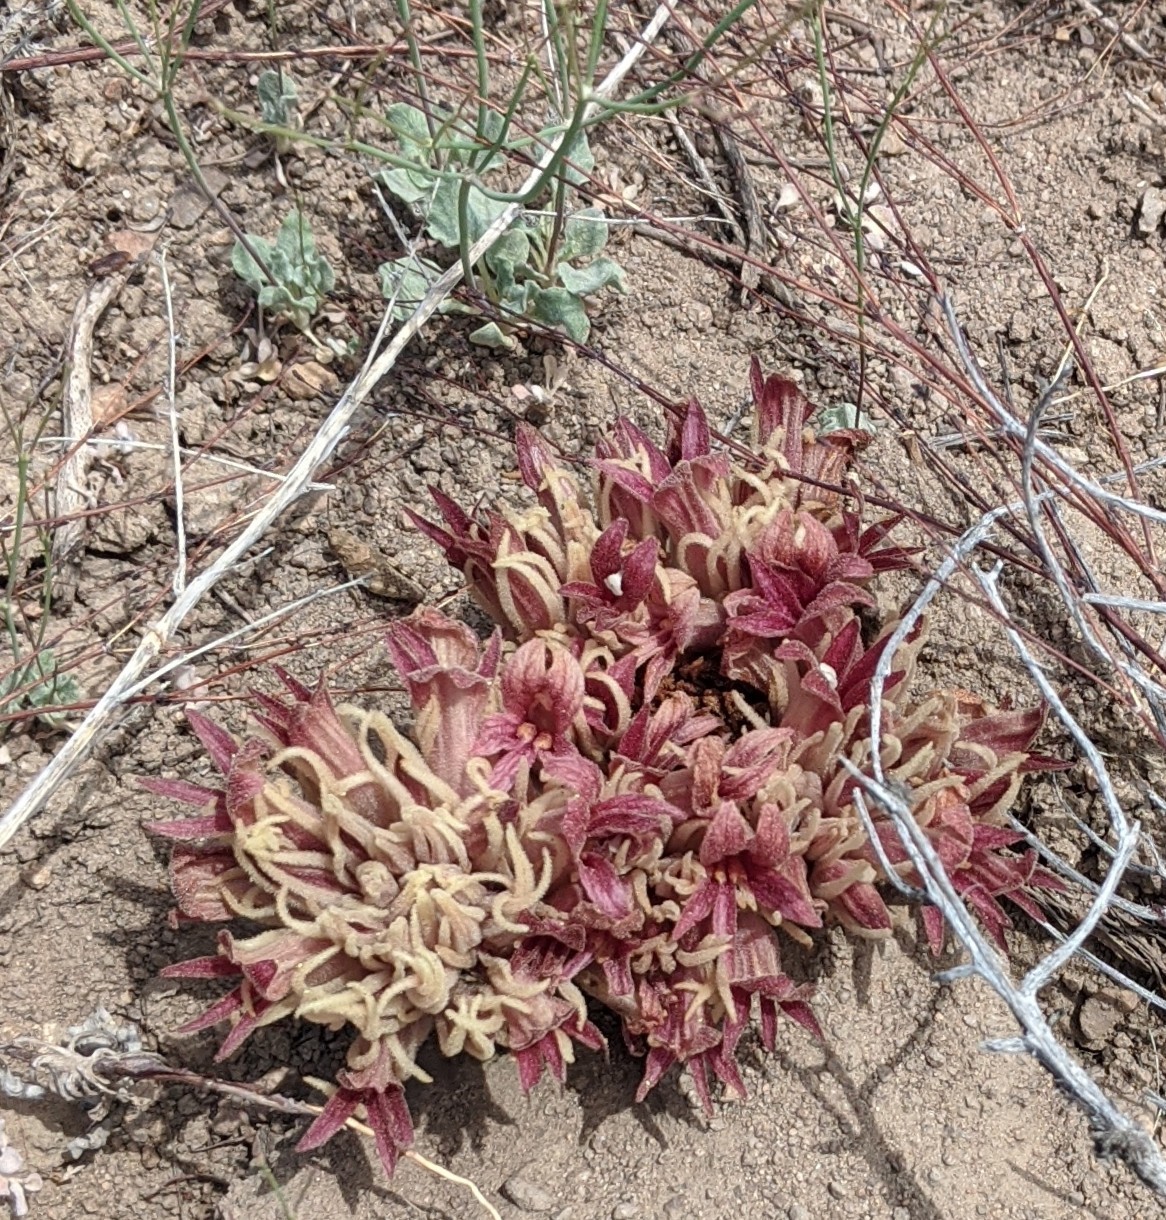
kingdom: Plantae
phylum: Tracheophyta
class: Magnoliopsida
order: Lamiales
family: Orobanchaceae
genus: Aphyllon
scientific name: Aphyllon californicum
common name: California broomrape
